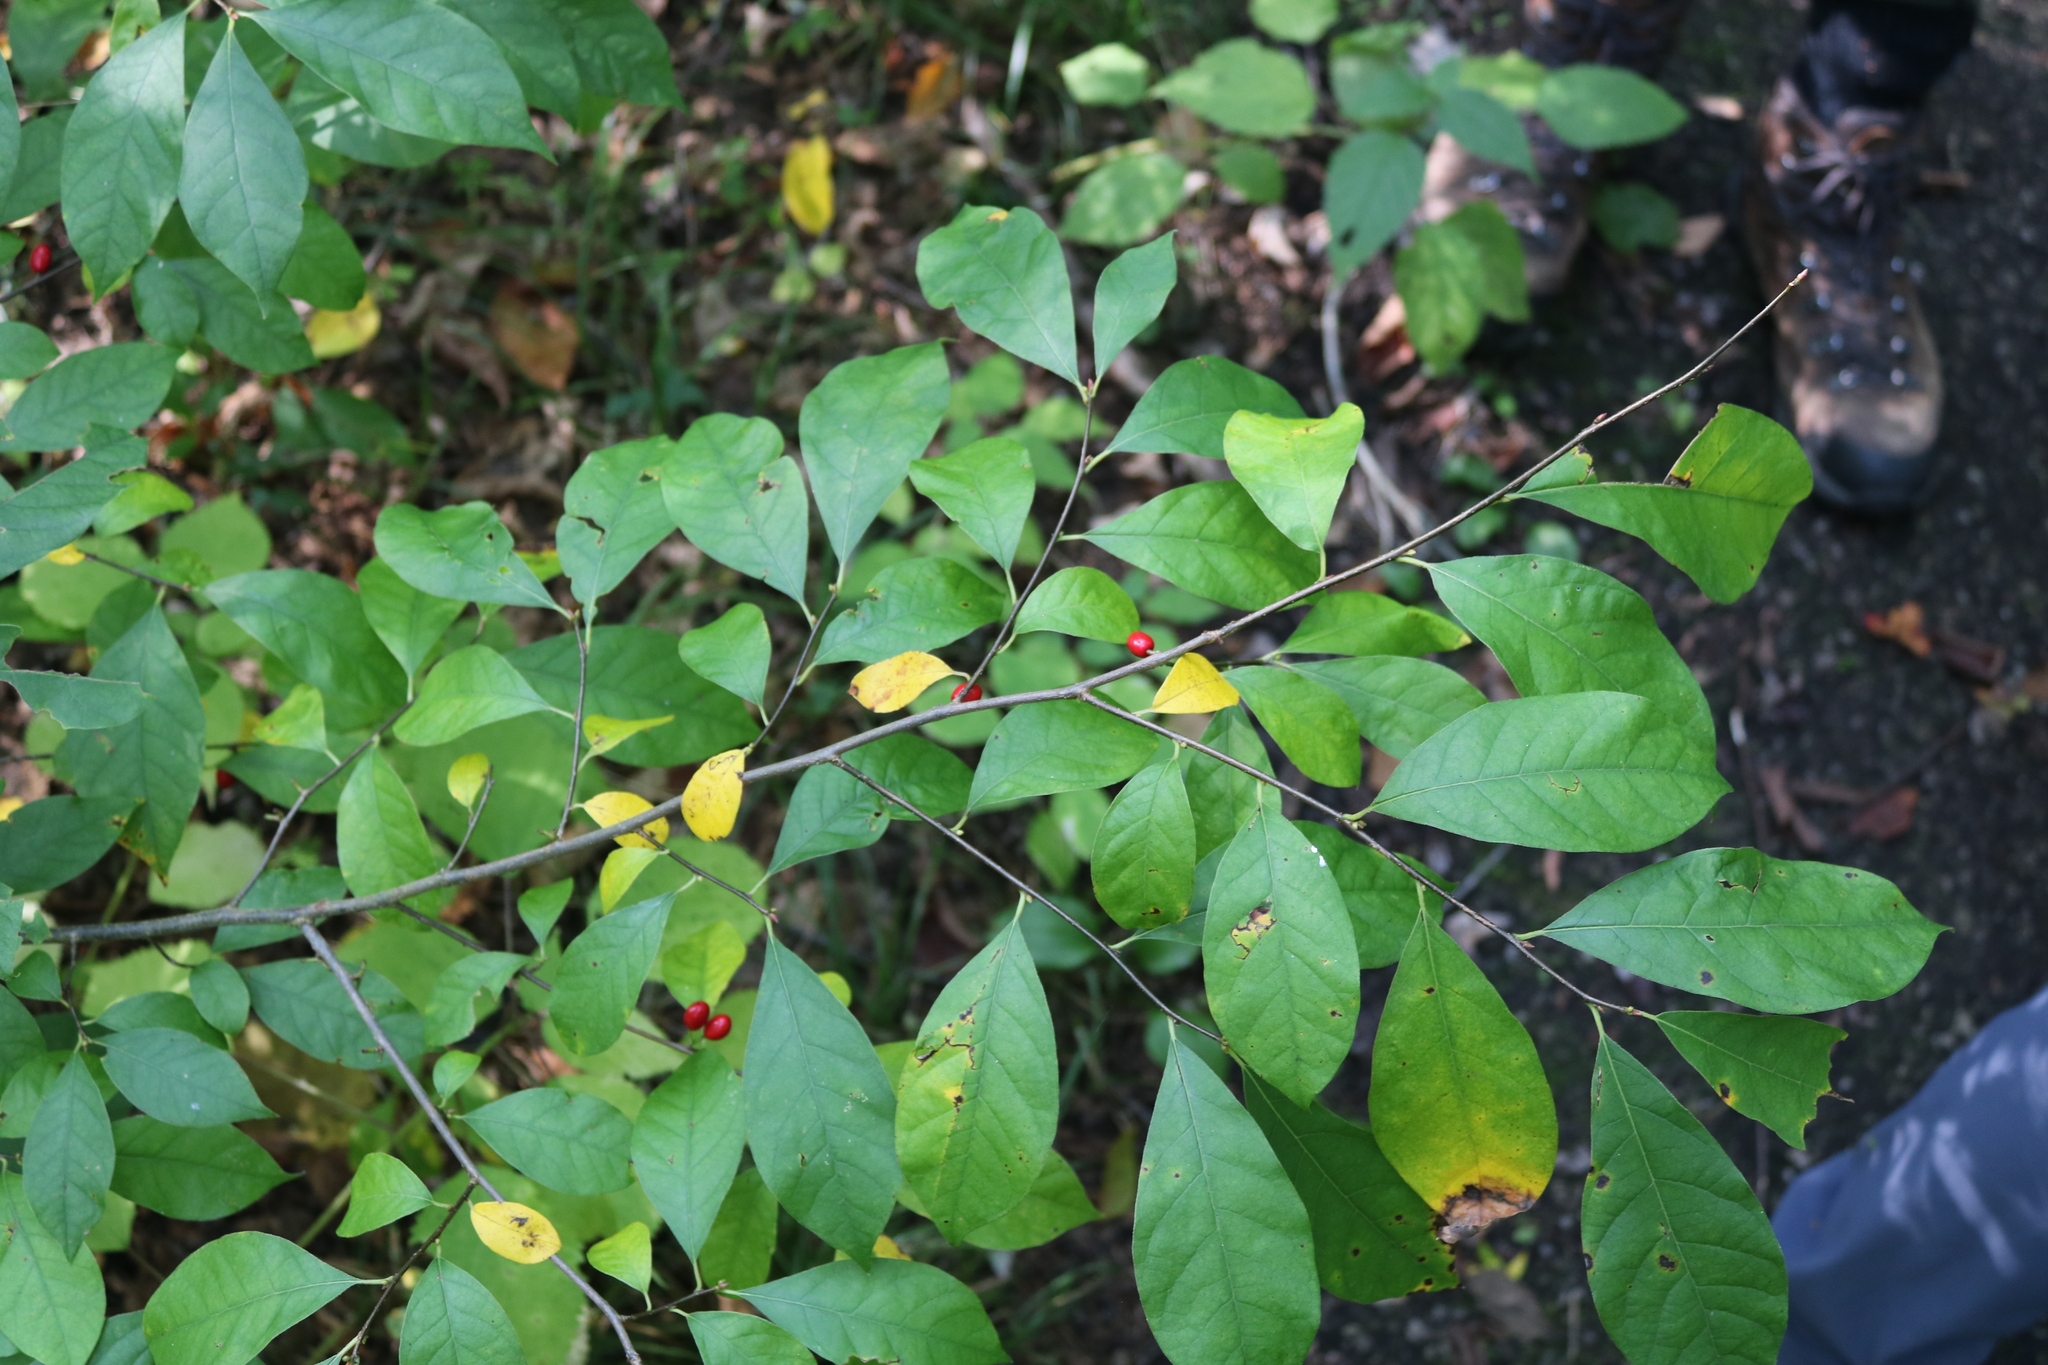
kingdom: Plantae
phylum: Tracheophyta
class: Magnoliopsida
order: Laurales
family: Lauraceae
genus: Lindera
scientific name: Lindera benzoin
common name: Spicebush
